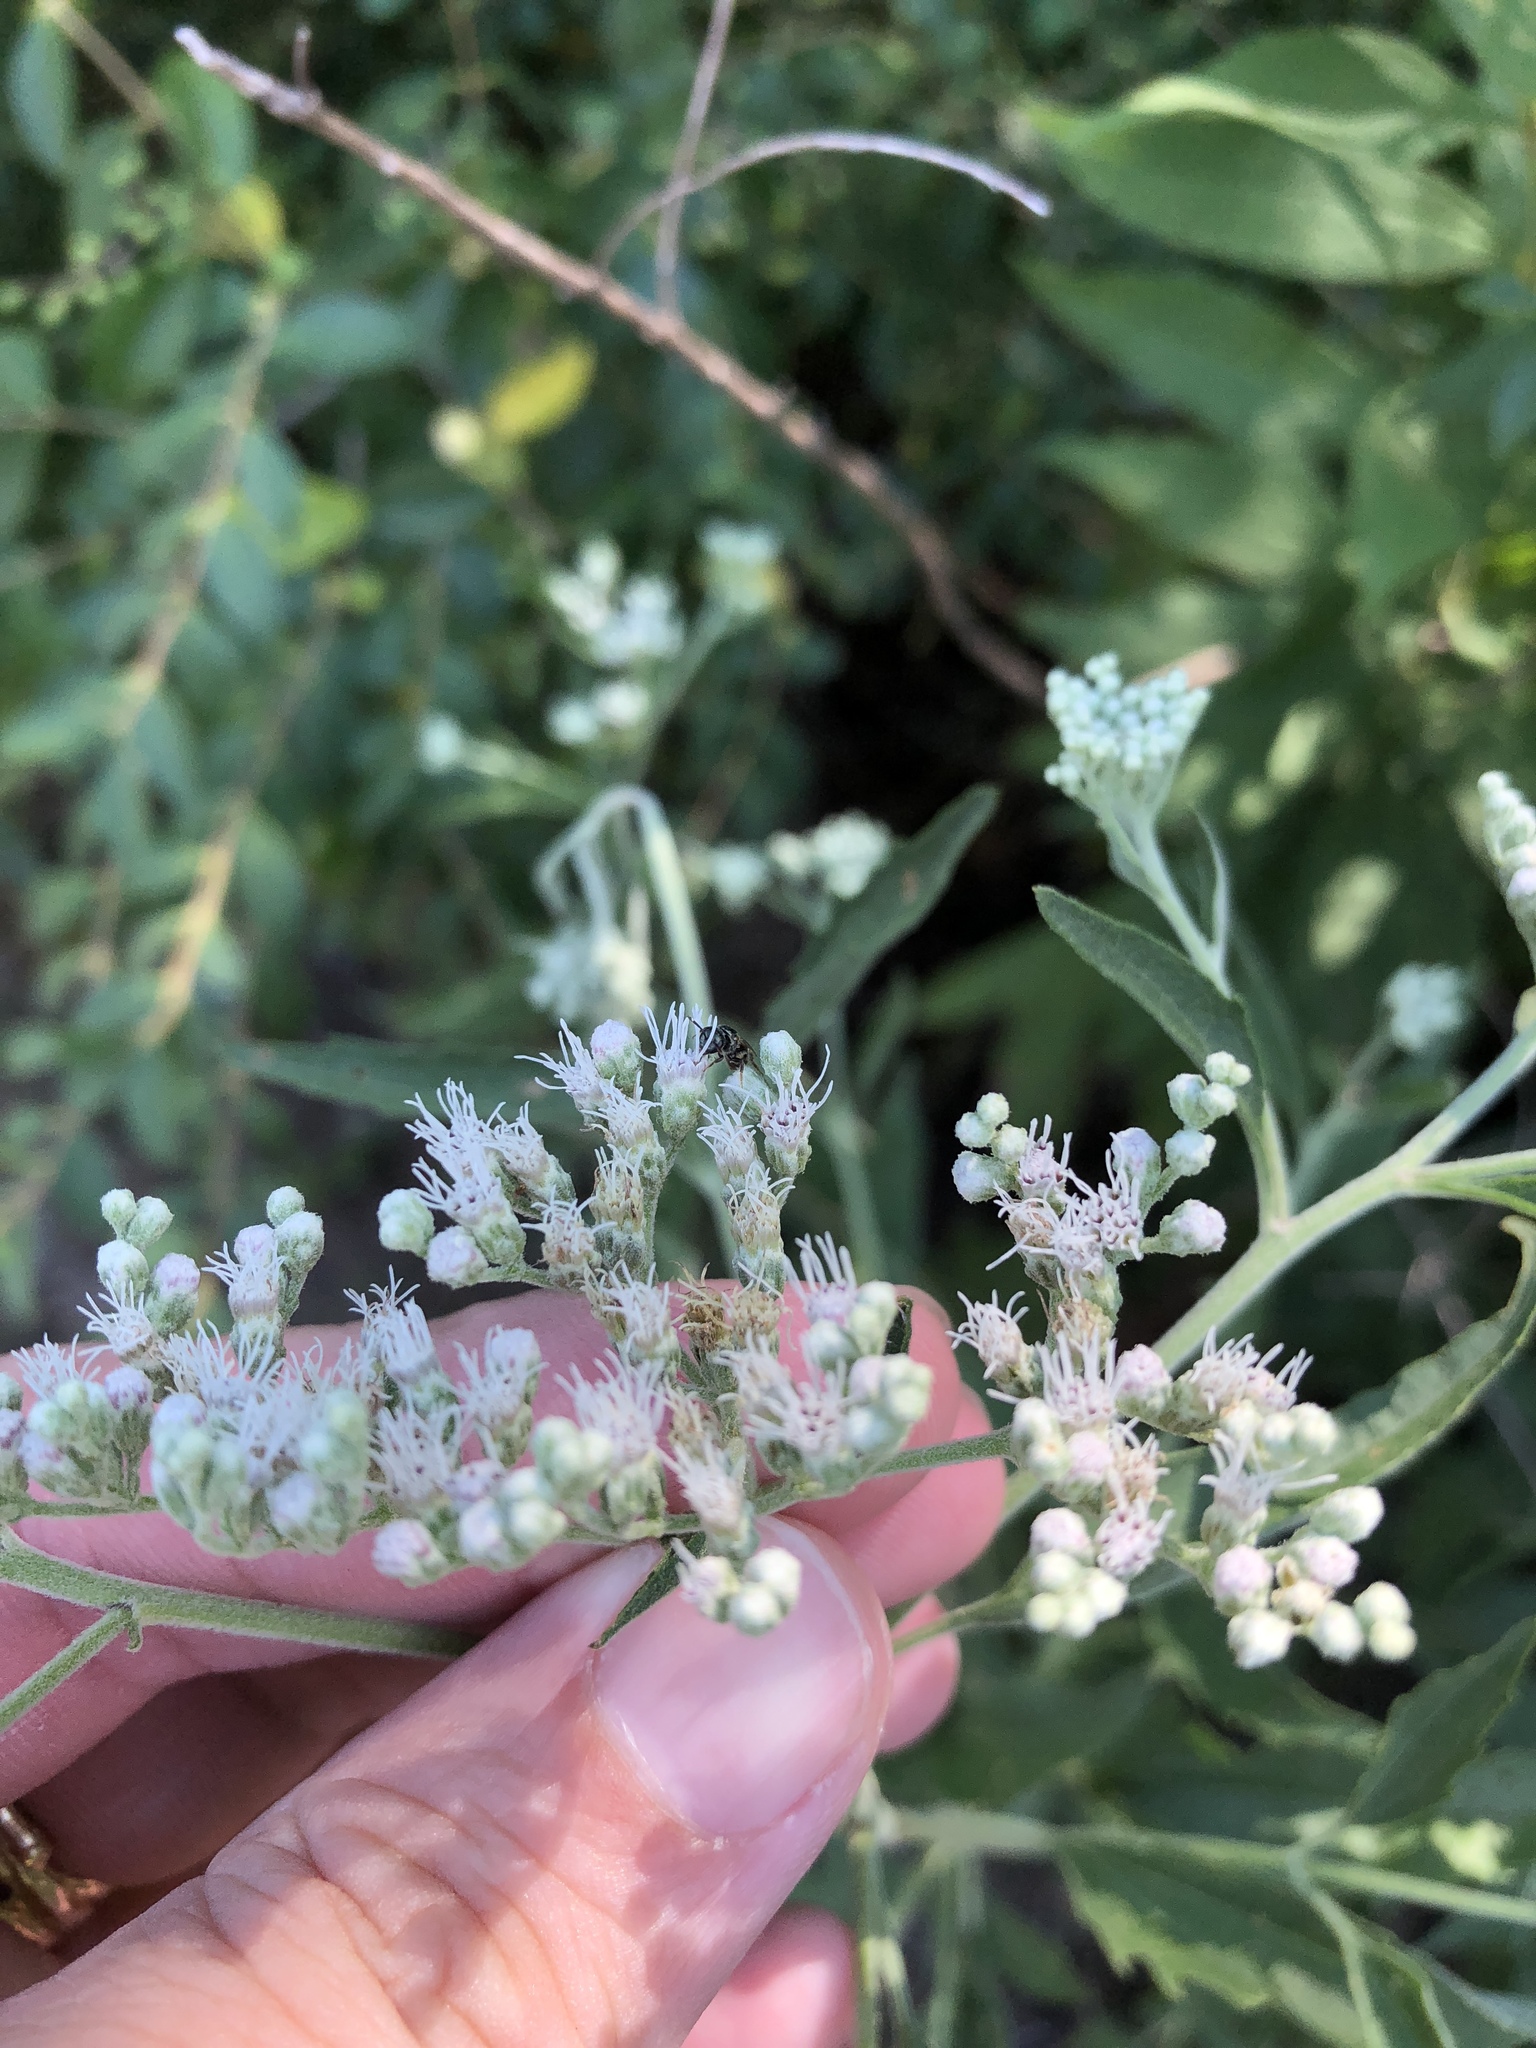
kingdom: Plantae
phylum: Tracheophyta
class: Magnoliopsida
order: Asterales
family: Asteraceae
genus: Eupatorium
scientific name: Eupatorium serotinum
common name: Late boneset
